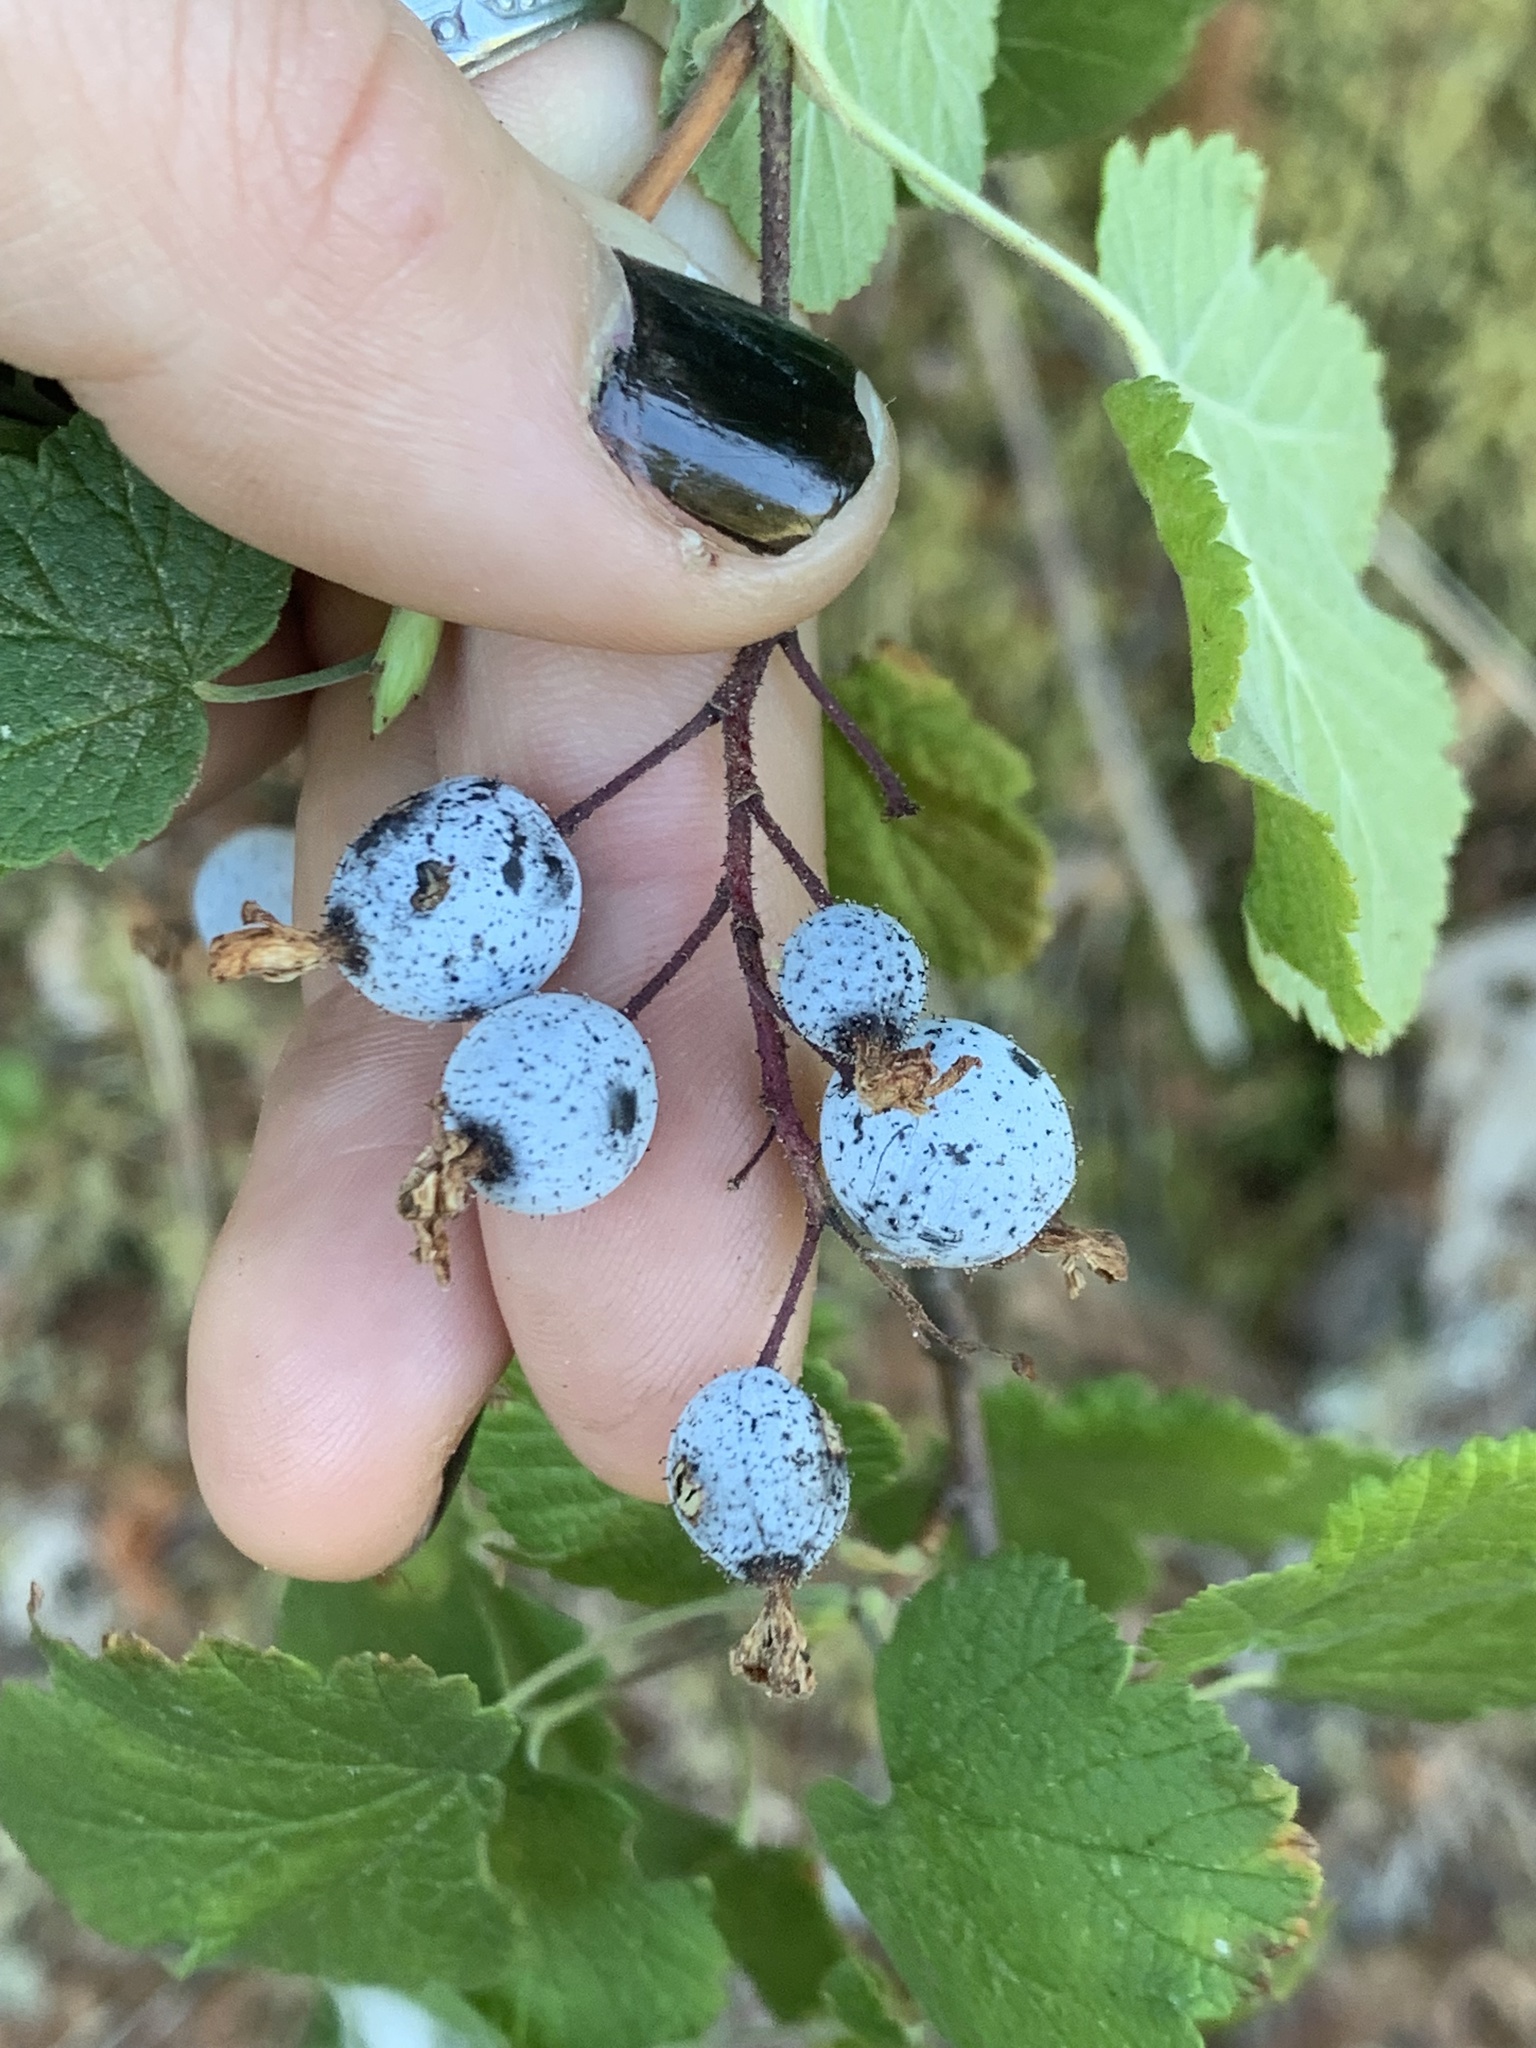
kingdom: Plantae
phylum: Tracheophyta
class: Magnoliopsida
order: Saxifragales
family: Grossulariaceae
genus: Ribes
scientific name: Ribes sanguineum
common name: Flowering currant
